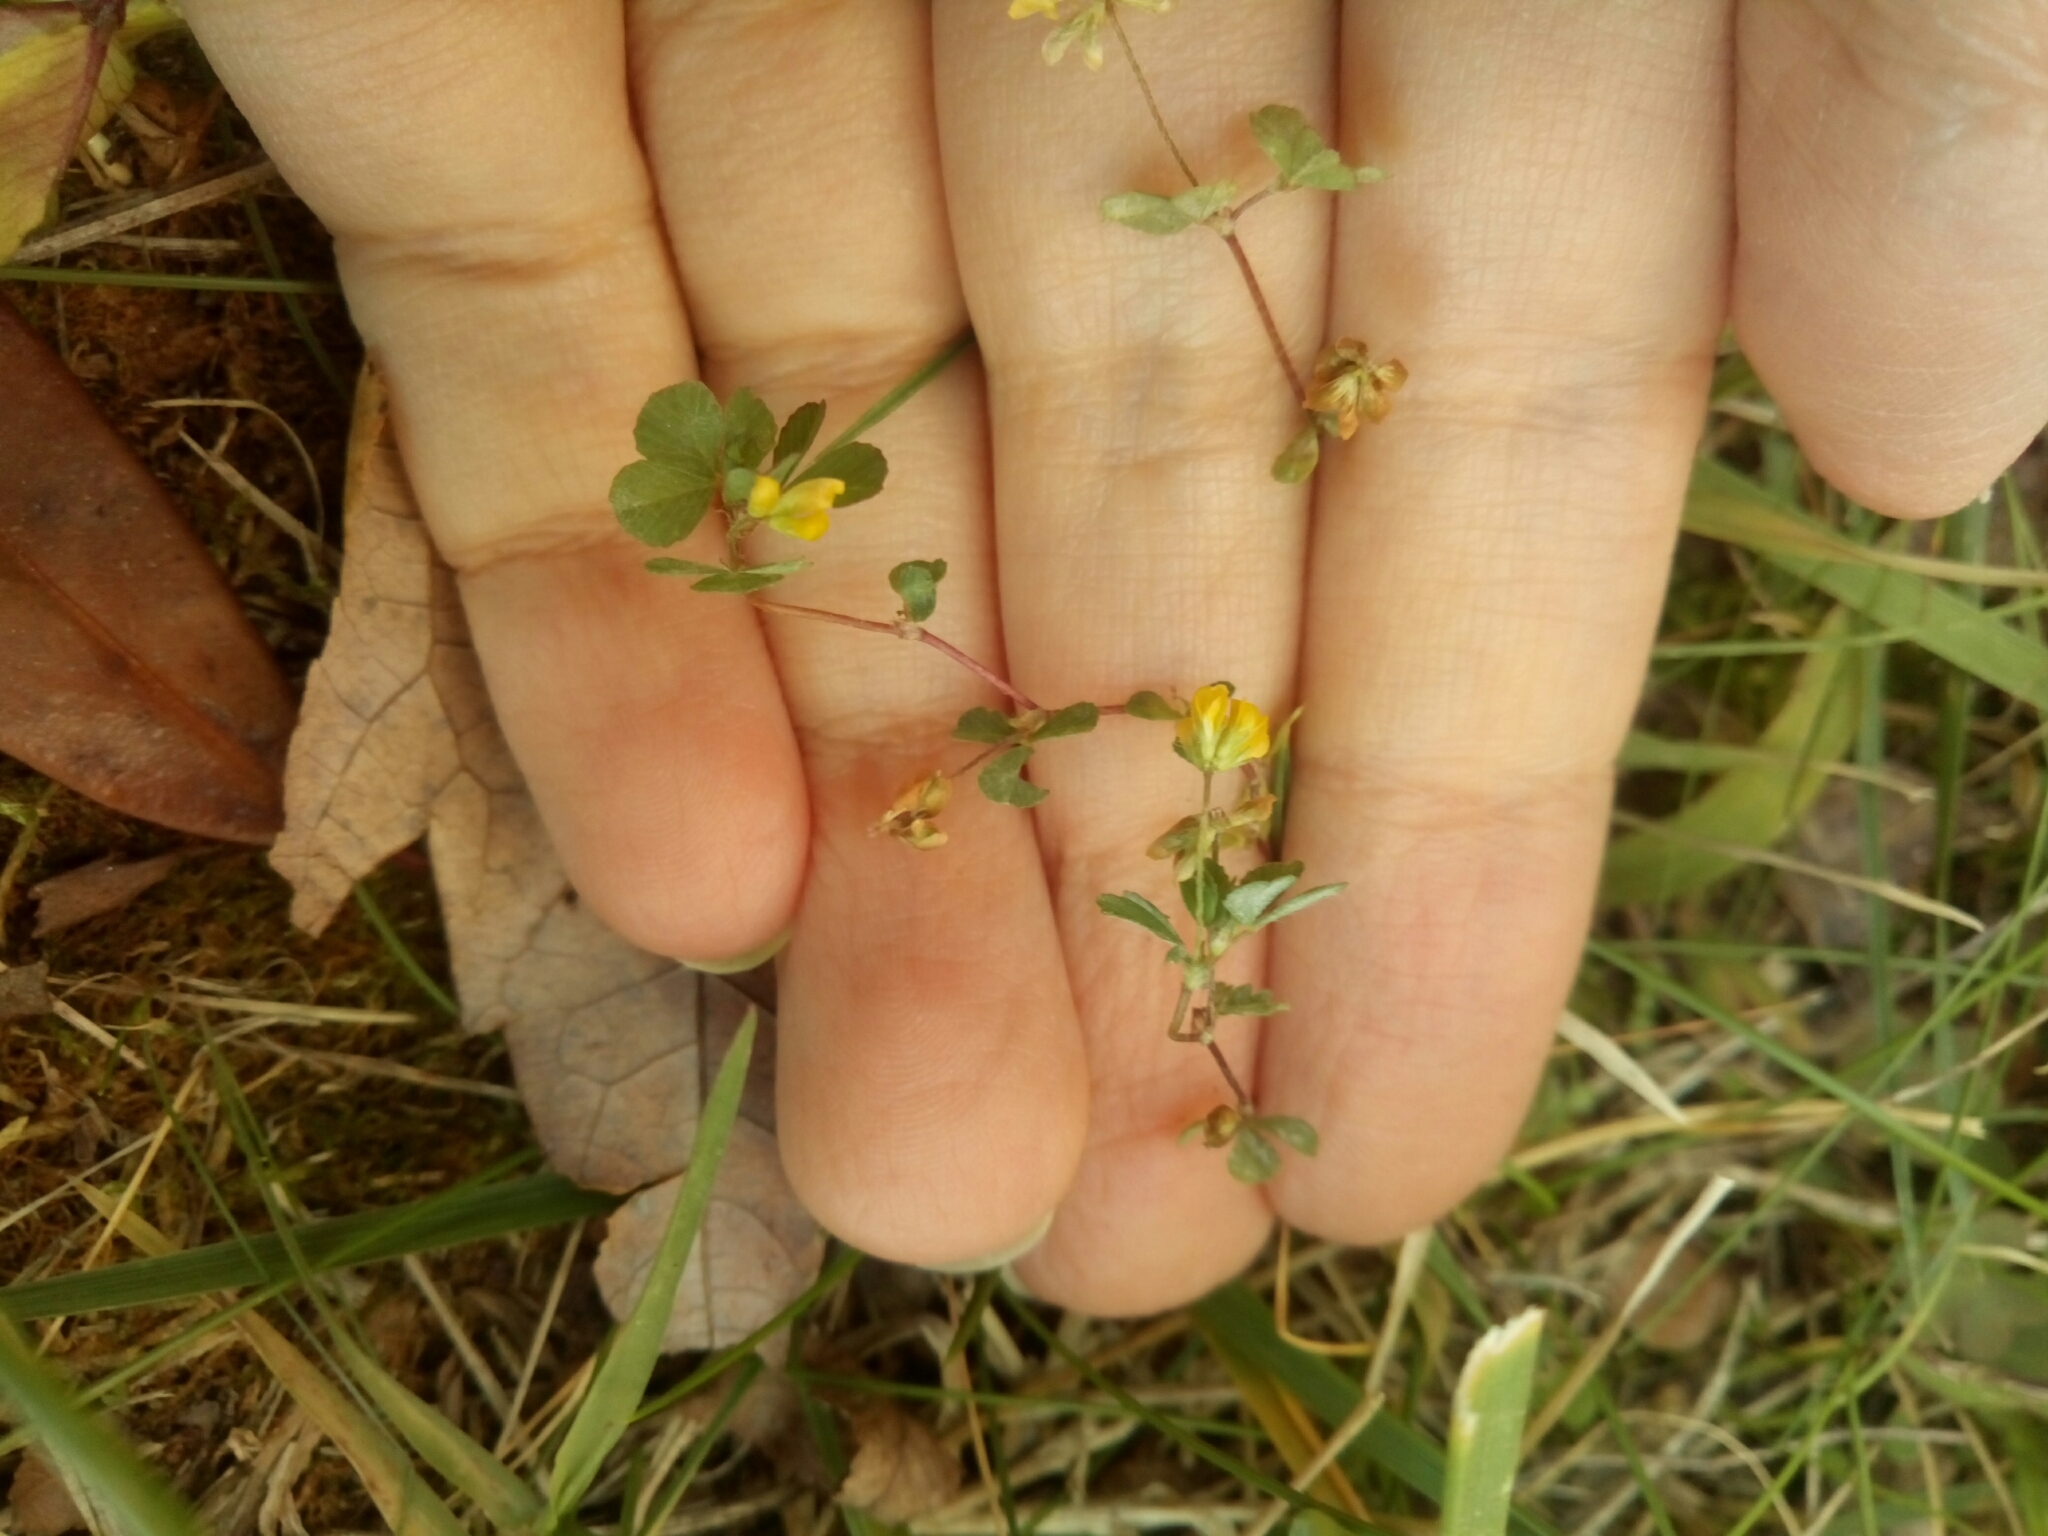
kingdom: Plantae
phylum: Tracheophyta
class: Magnoliopsida
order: Fabales
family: Fabaceae
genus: Trifolium
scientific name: Trifolium dubium
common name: Suckling clover
